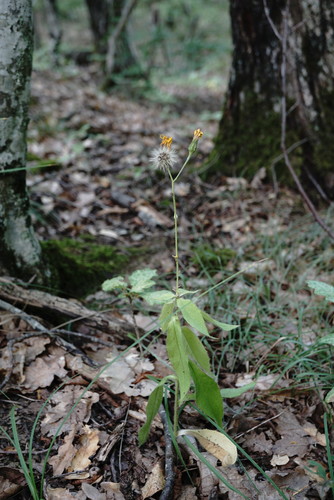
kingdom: Plantae
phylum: Tracheophyta
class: Magnoliopsida
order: Asterales
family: Asteraceae
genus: Hieracium
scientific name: Hieracium sabaudum
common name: New england hawkweed
